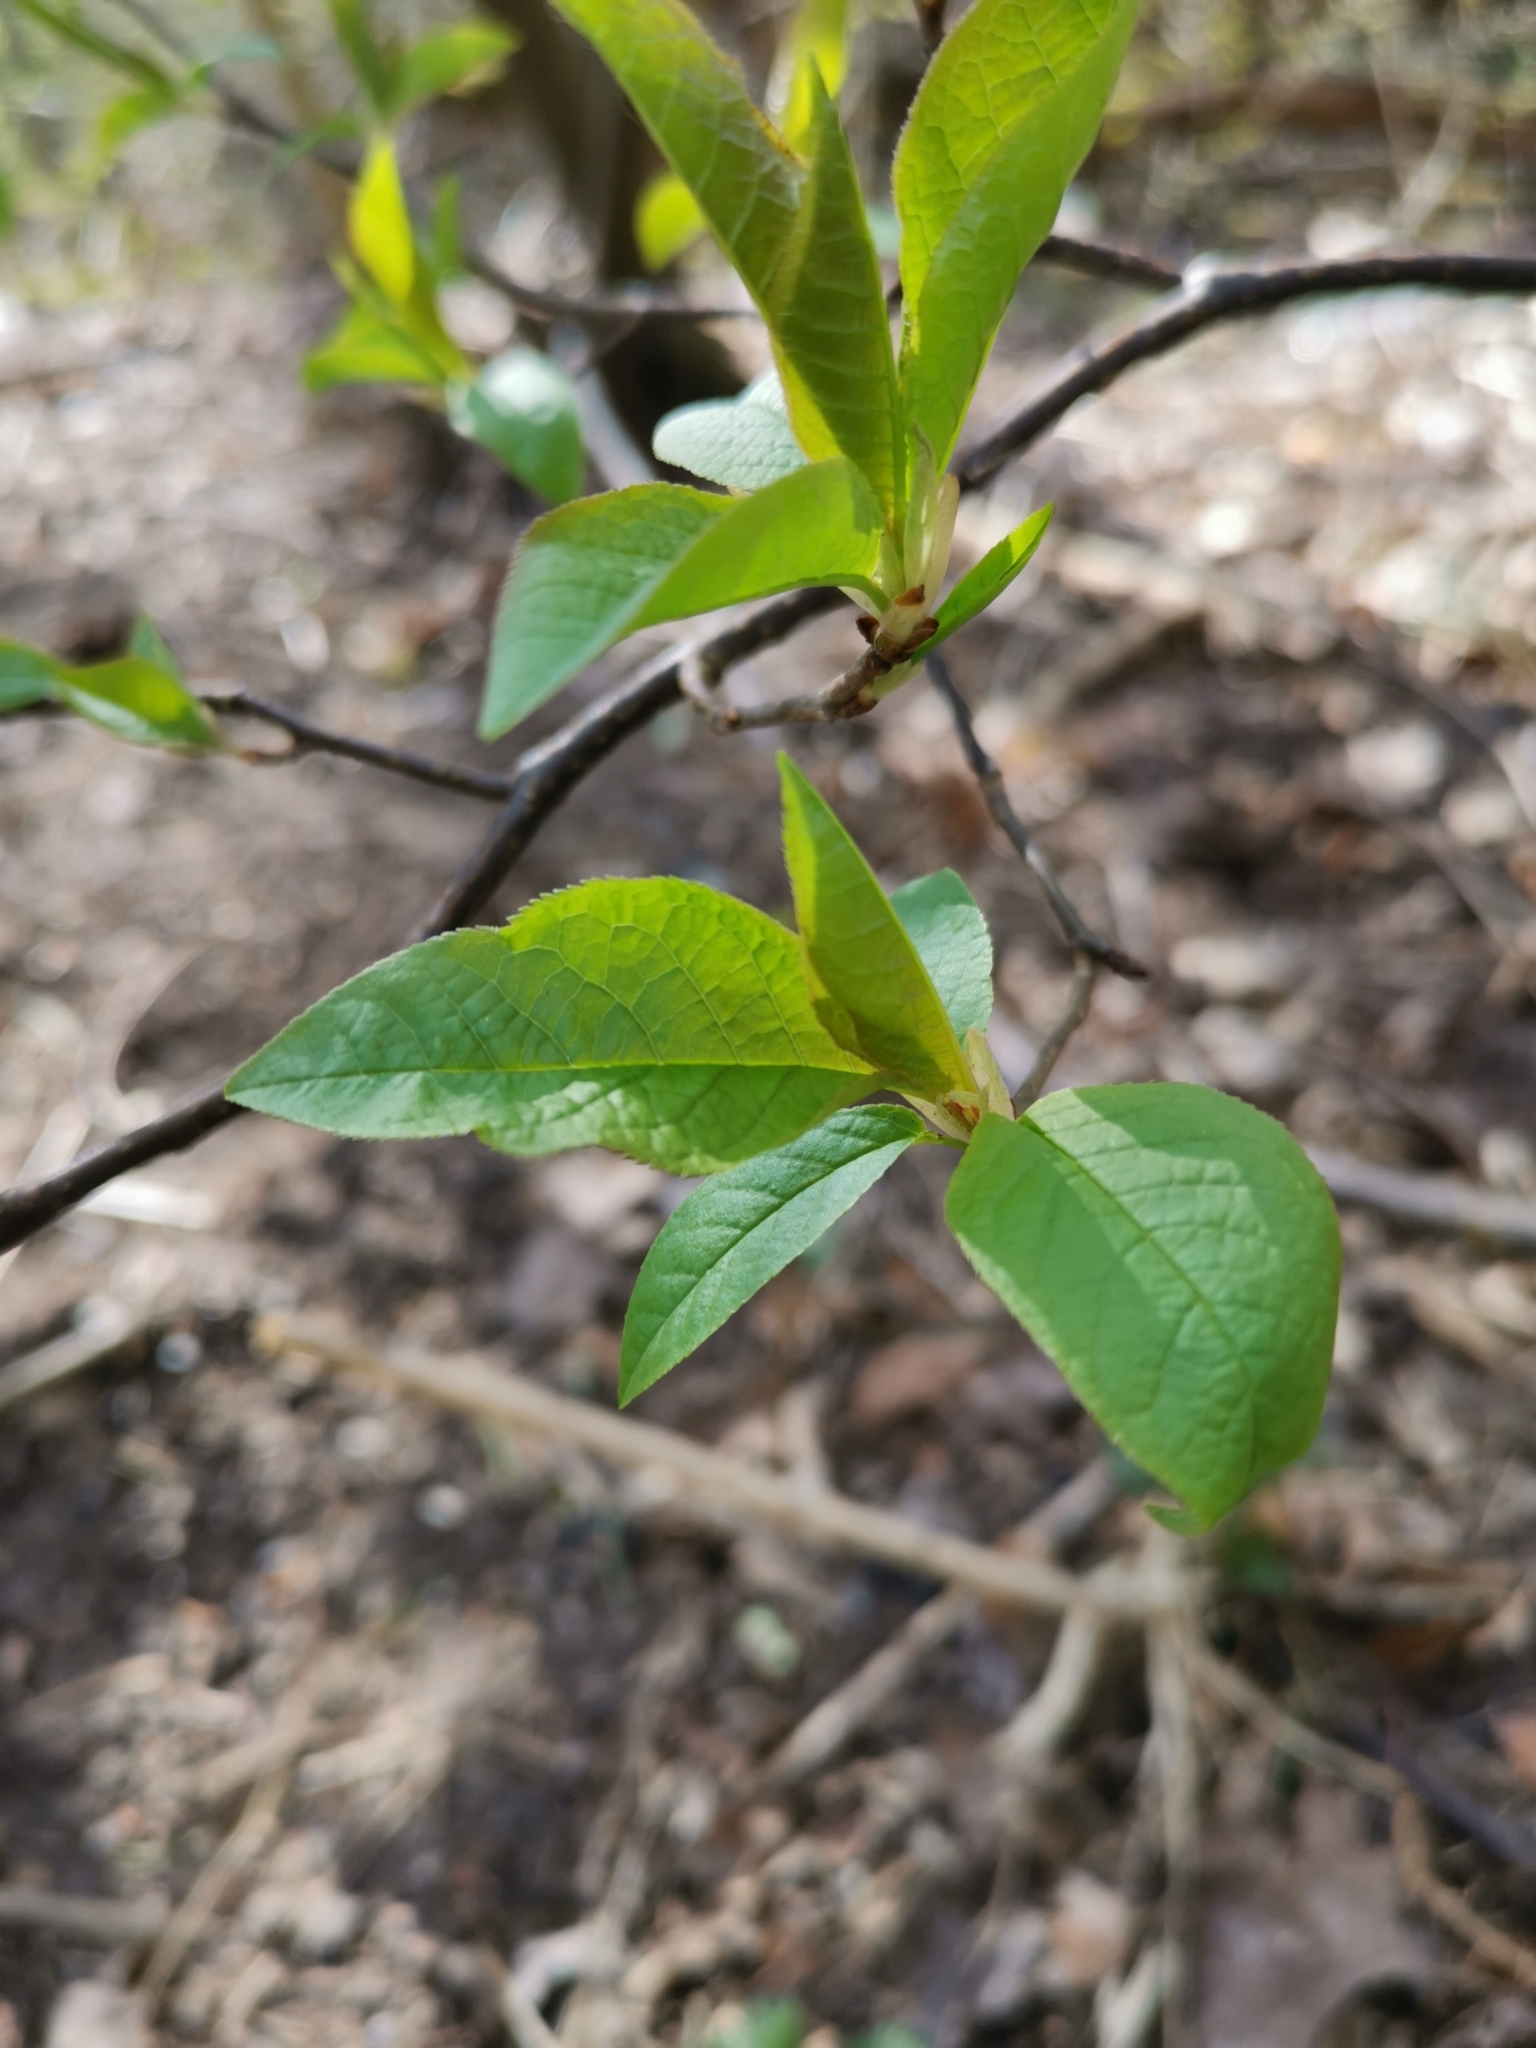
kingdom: Plantae
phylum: Tracheophyta
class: Magnoliopsida
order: Rosales
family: Rosaceae
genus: Prunus
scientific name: Prunus padus
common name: Bird cherry
